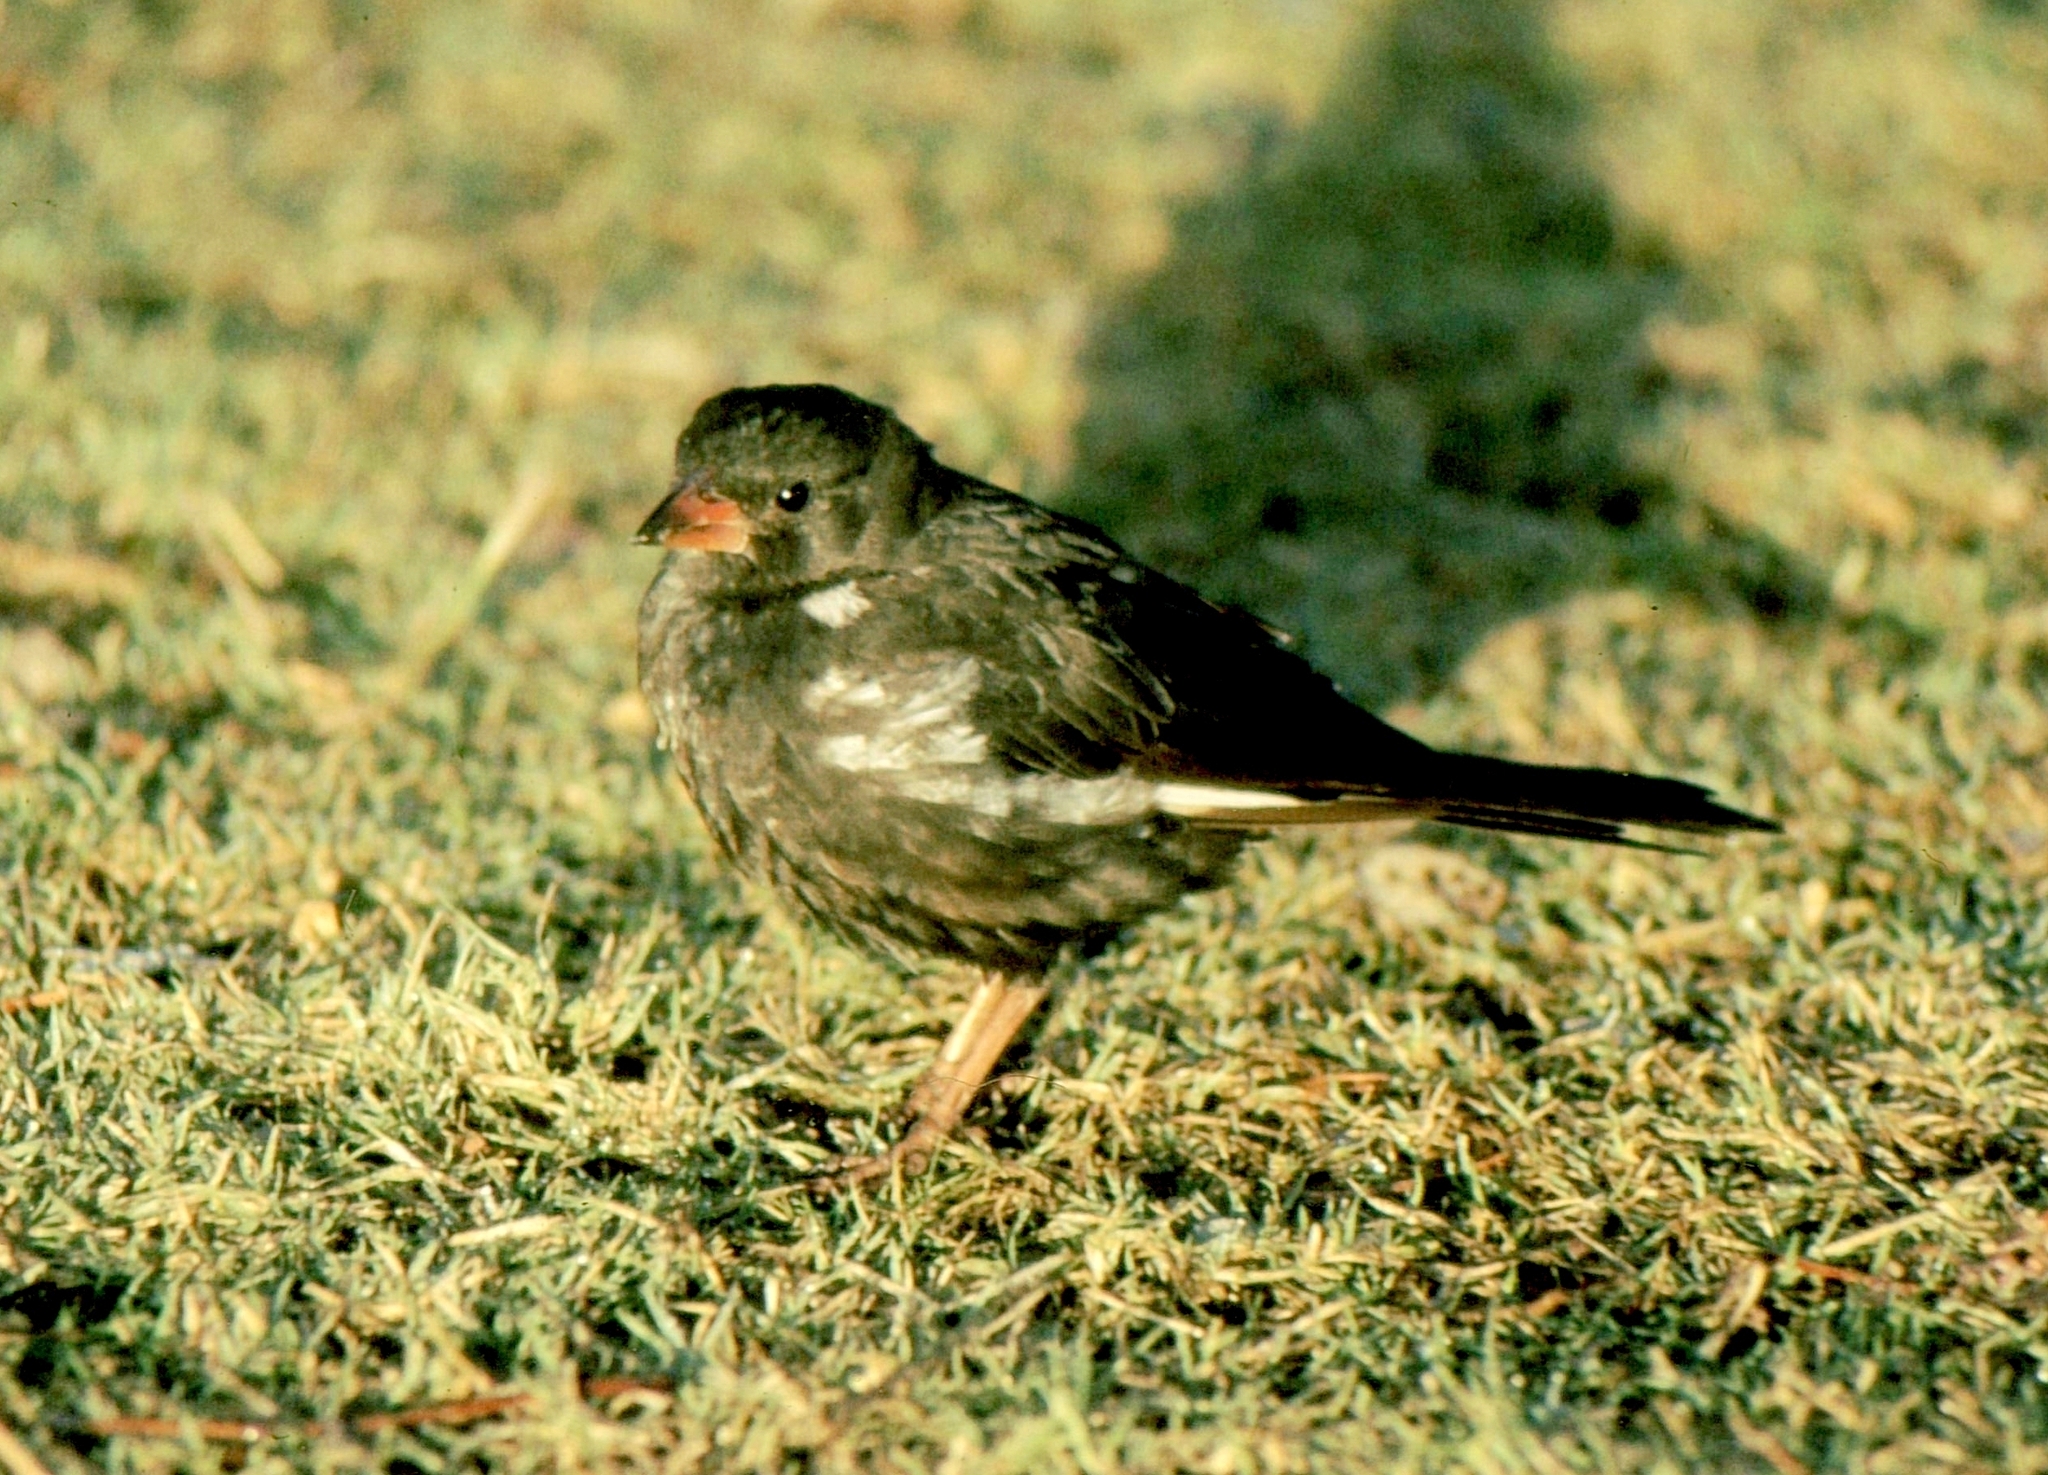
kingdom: Animalia
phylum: Chordata
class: Aves
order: Passeriformes
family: Ploceidae
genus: Bubalornis
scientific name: Bubalornis niger
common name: Red-billed buffalo weaver
